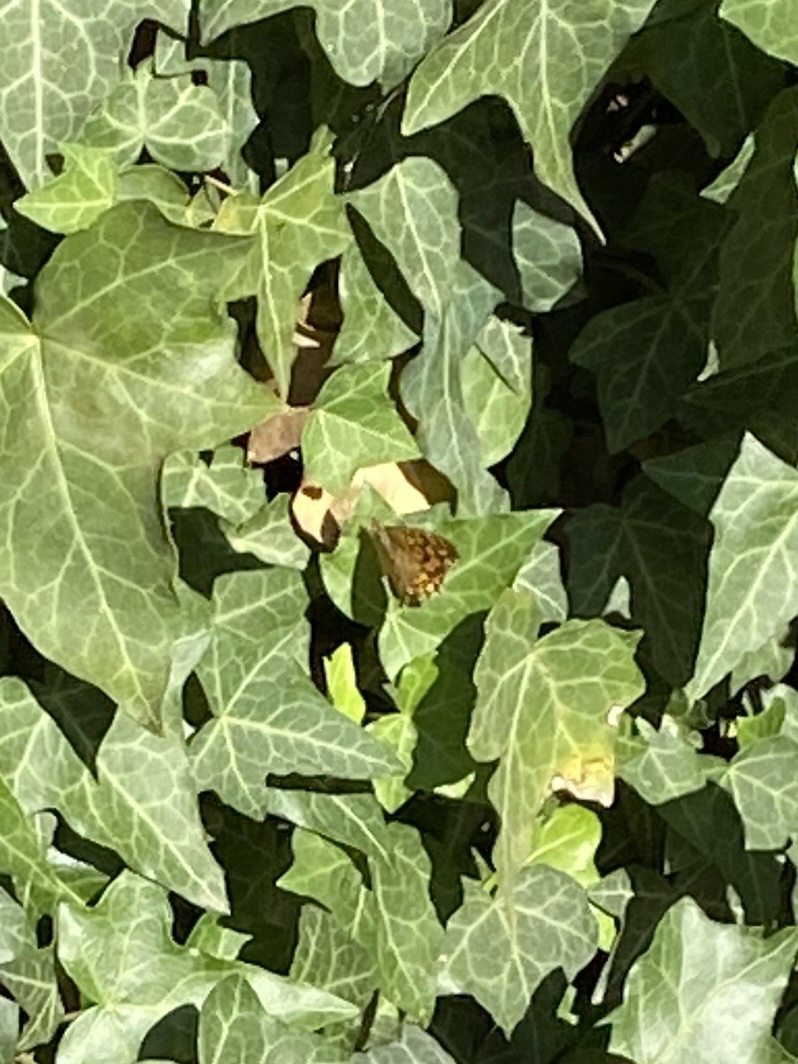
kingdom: Animalia
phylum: Arthropoda
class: Insecta
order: Lepidoptera
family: Nymphalidae
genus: Pararge
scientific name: Pararge aegeria
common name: Speckled wood
